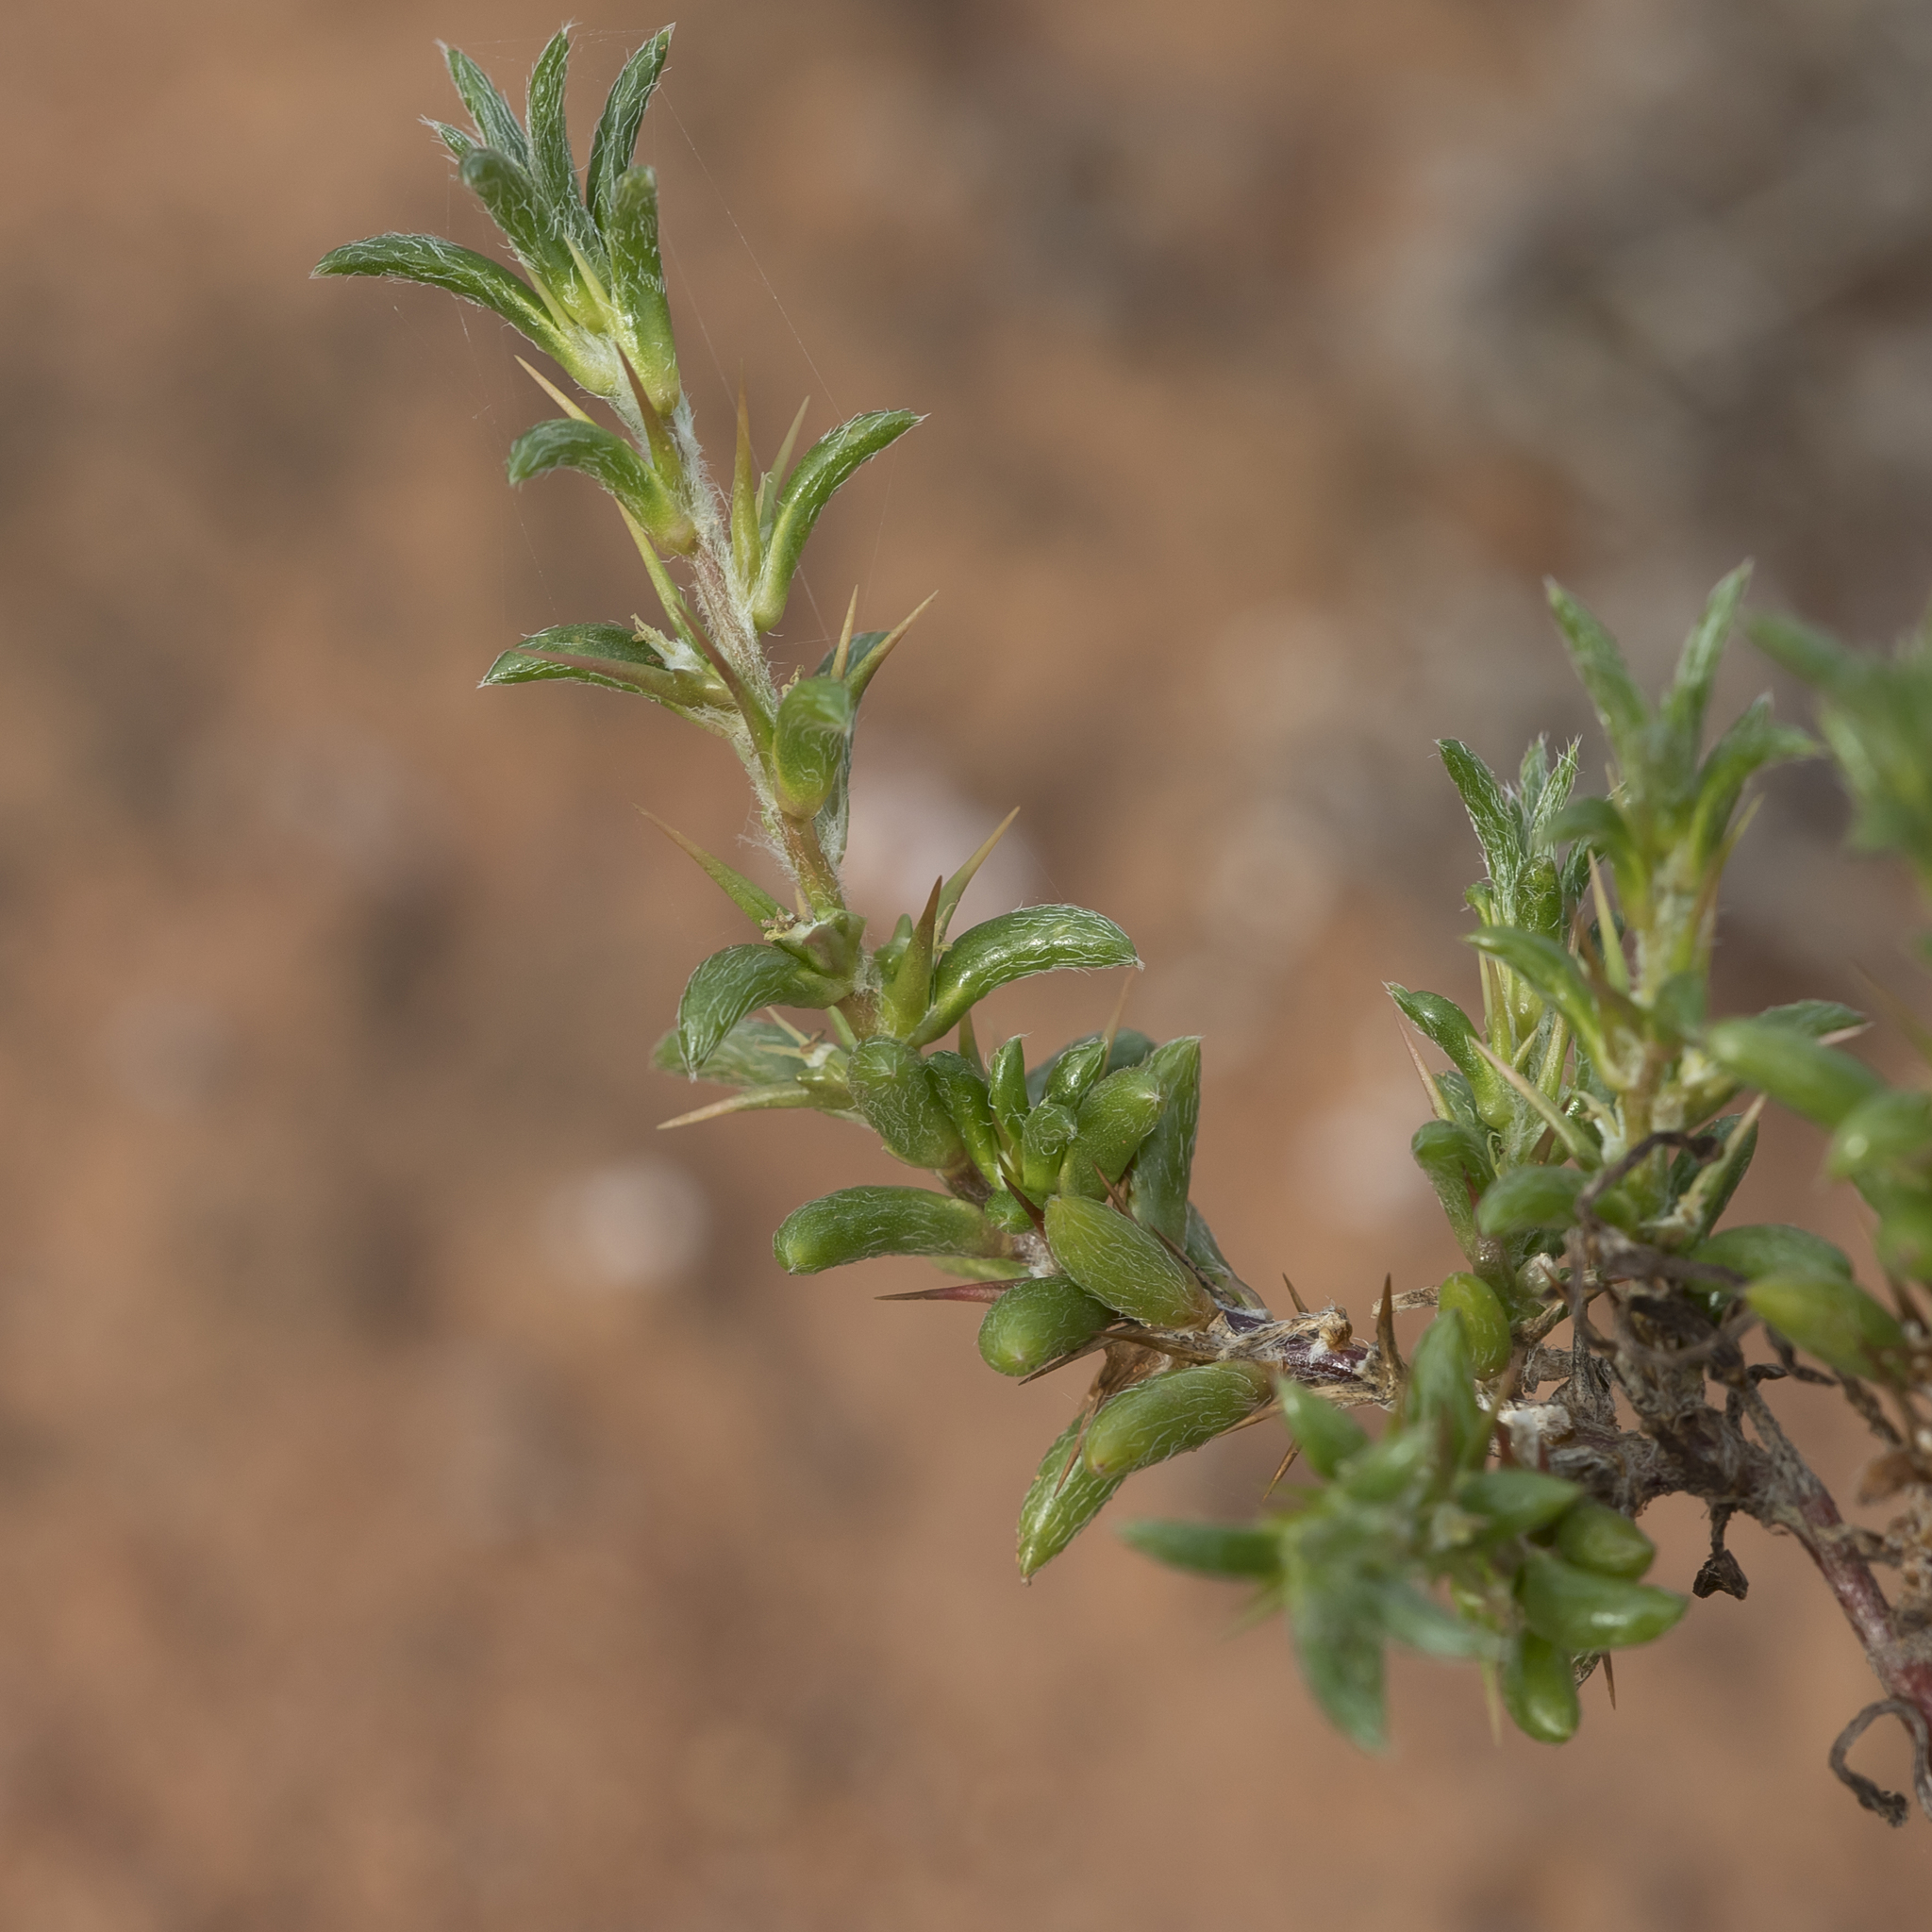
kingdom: Plantae
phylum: Tracheophyta
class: Magnoliopsida
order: Caryophyllales
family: Amaranthaceae
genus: Sclerolaena
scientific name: Sclerolaena decurrens
